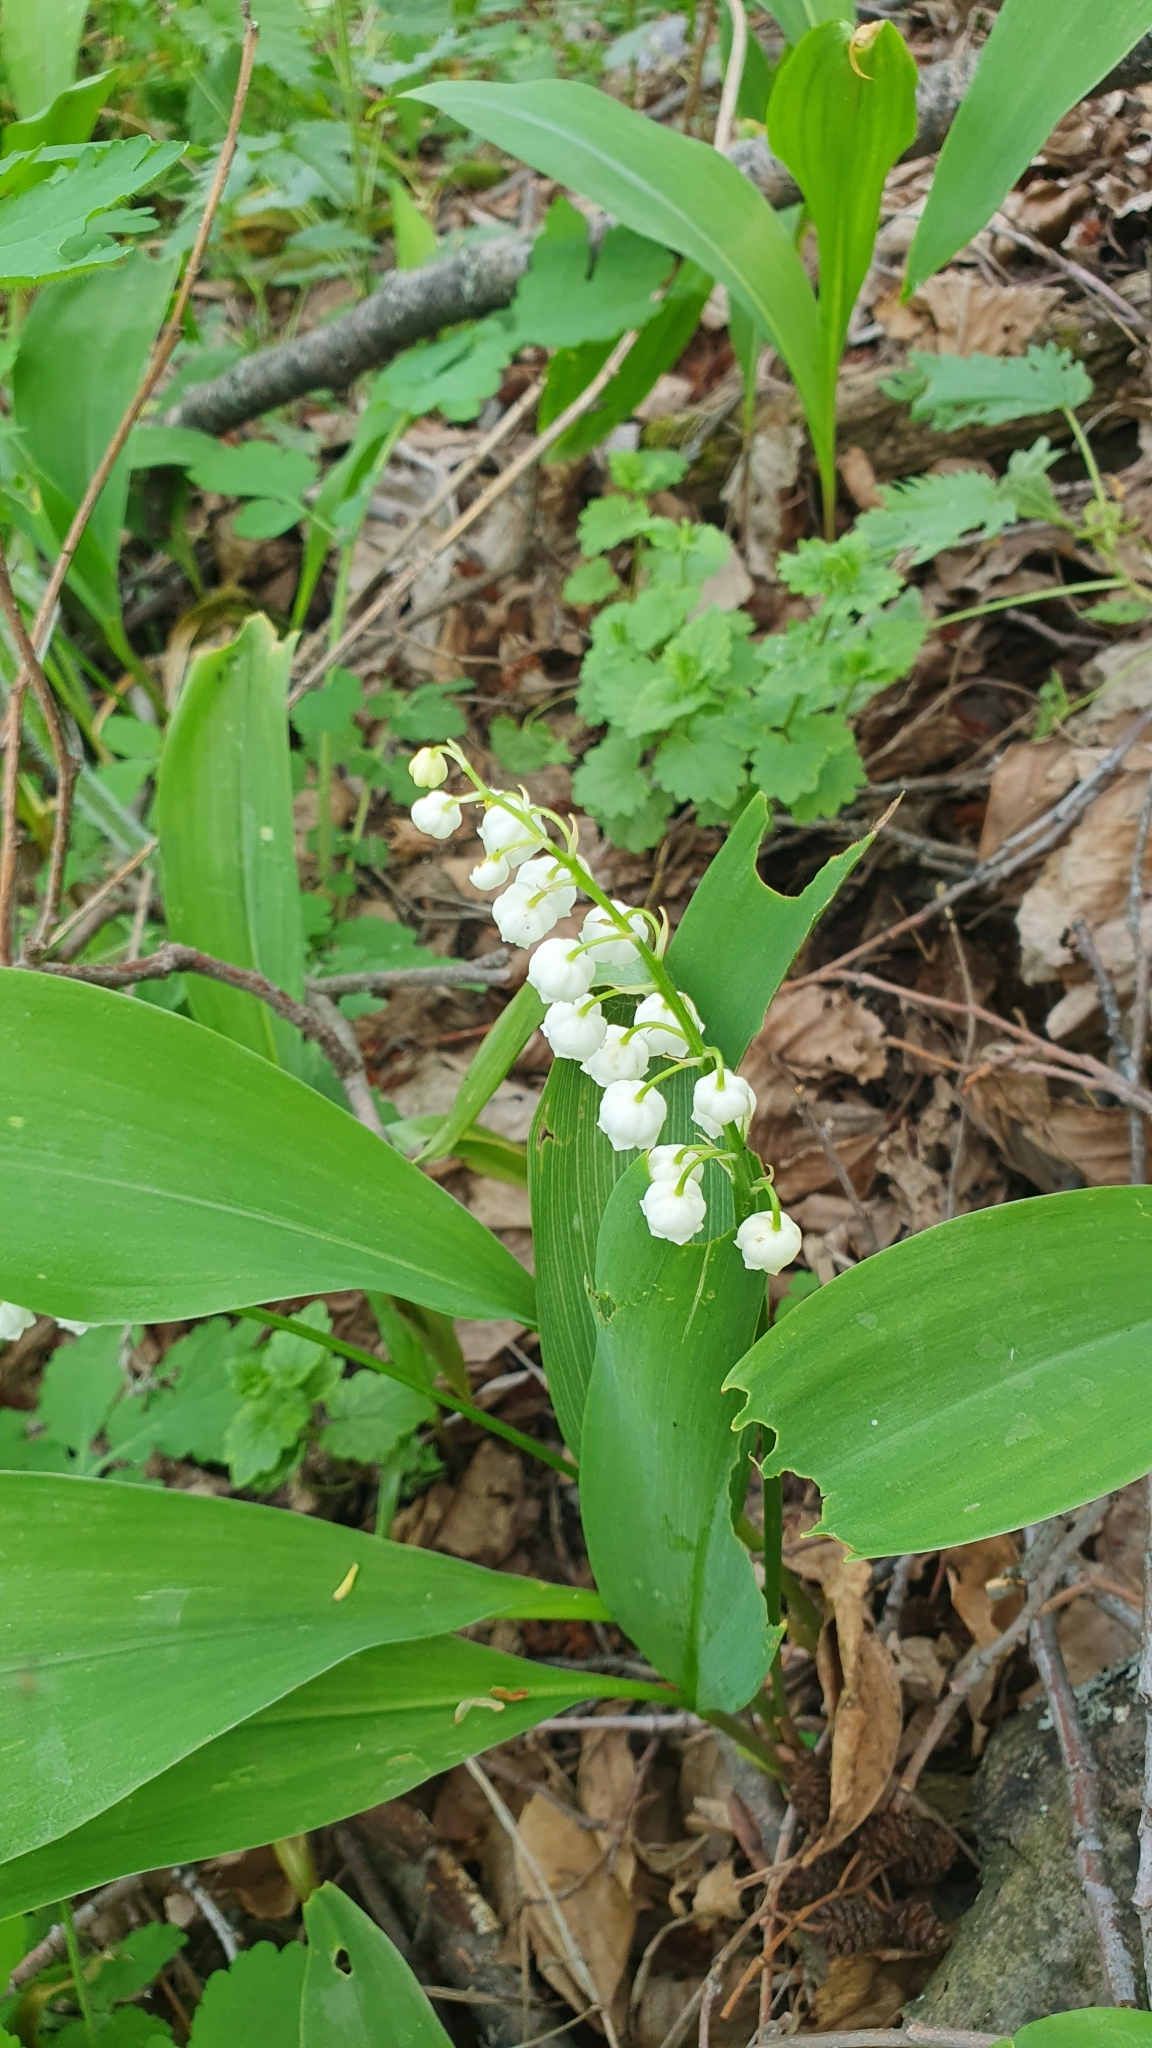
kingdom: Plantae
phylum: Tracheophyta
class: Liliopsida
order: Asparagales
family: Asparagaceae
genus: Convallaria
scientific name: Convallaria majalis
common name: Lily-of-the-valley
